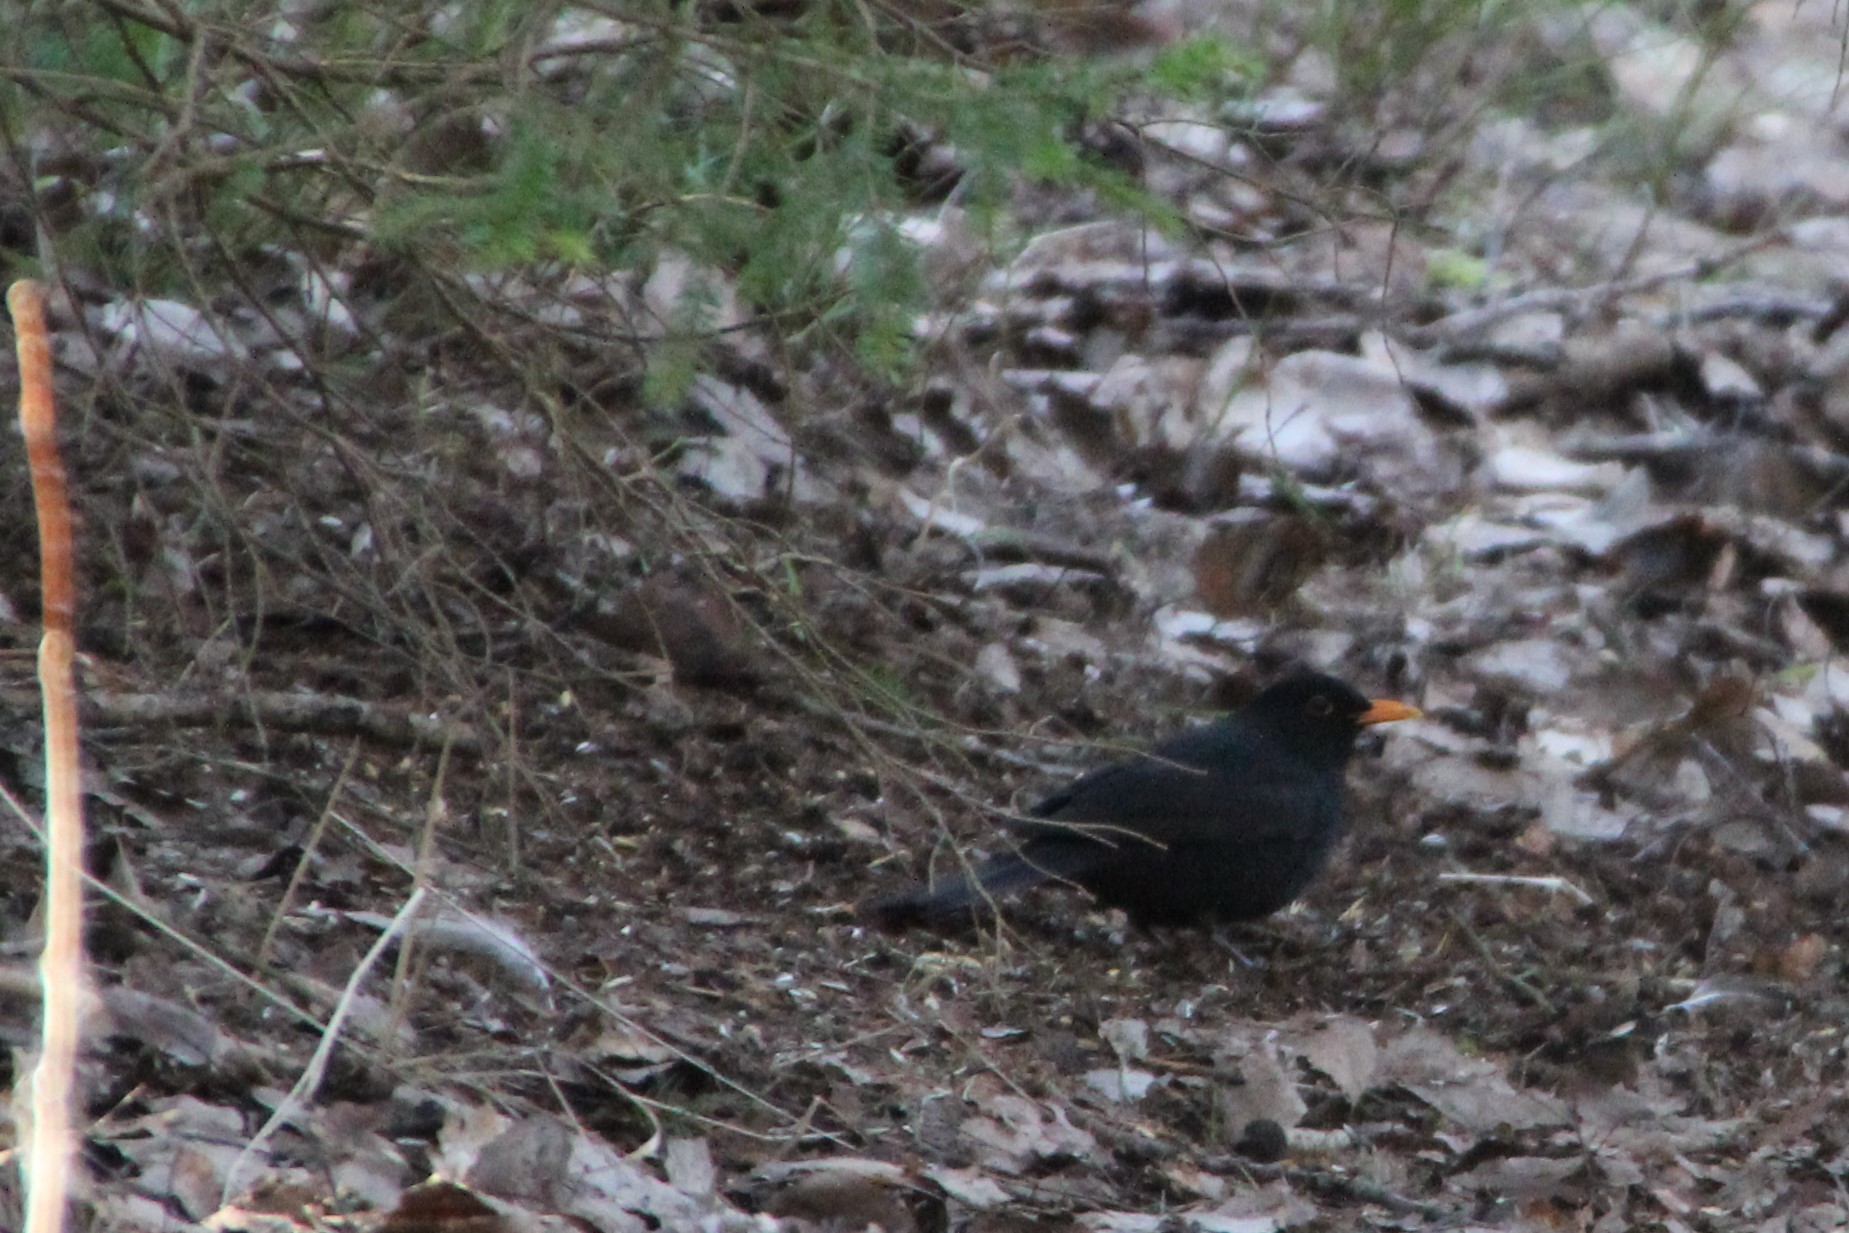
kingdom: Animalia
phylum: Chordata
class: Aves
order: Passeriformes
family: Turdidae
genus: Turdus
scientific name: Turdus merula
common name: Common blackbird
